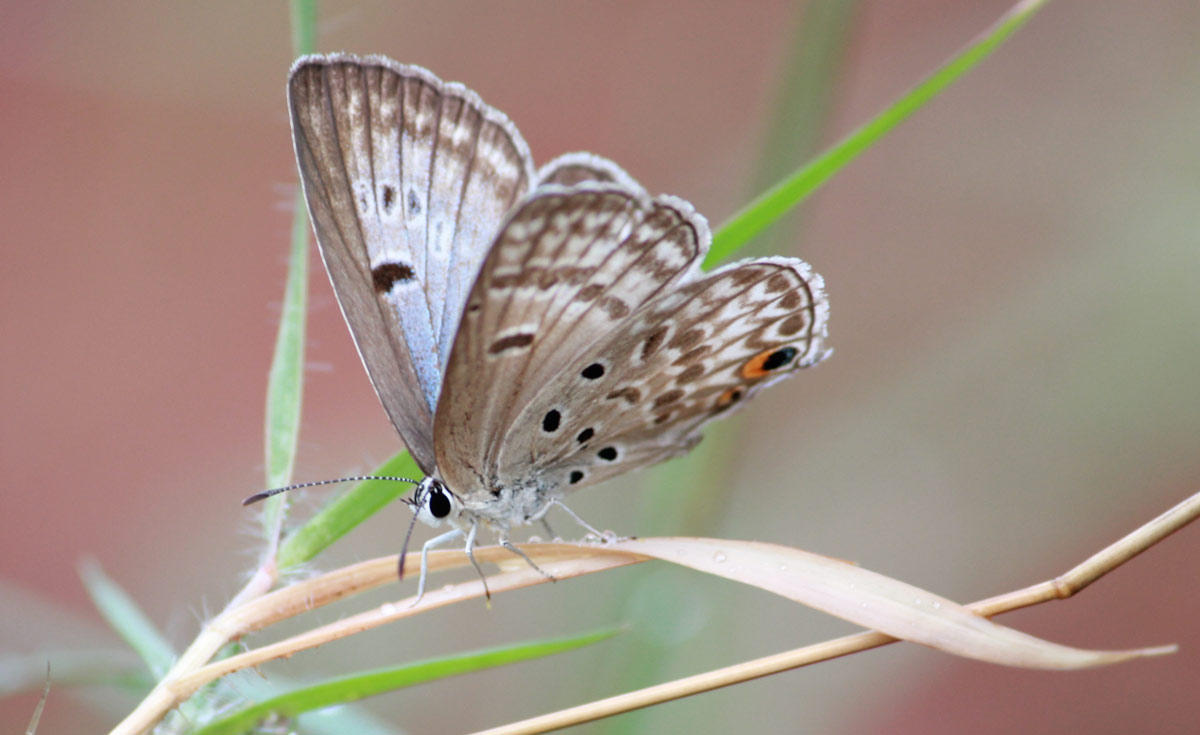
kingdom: Animalia
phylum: Arthropoda
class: Insecta
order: Lepidoptera
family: Lycaenidae
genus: Lepidochrysops
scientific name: Lepidochrysops glauca
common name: Silvery blue
